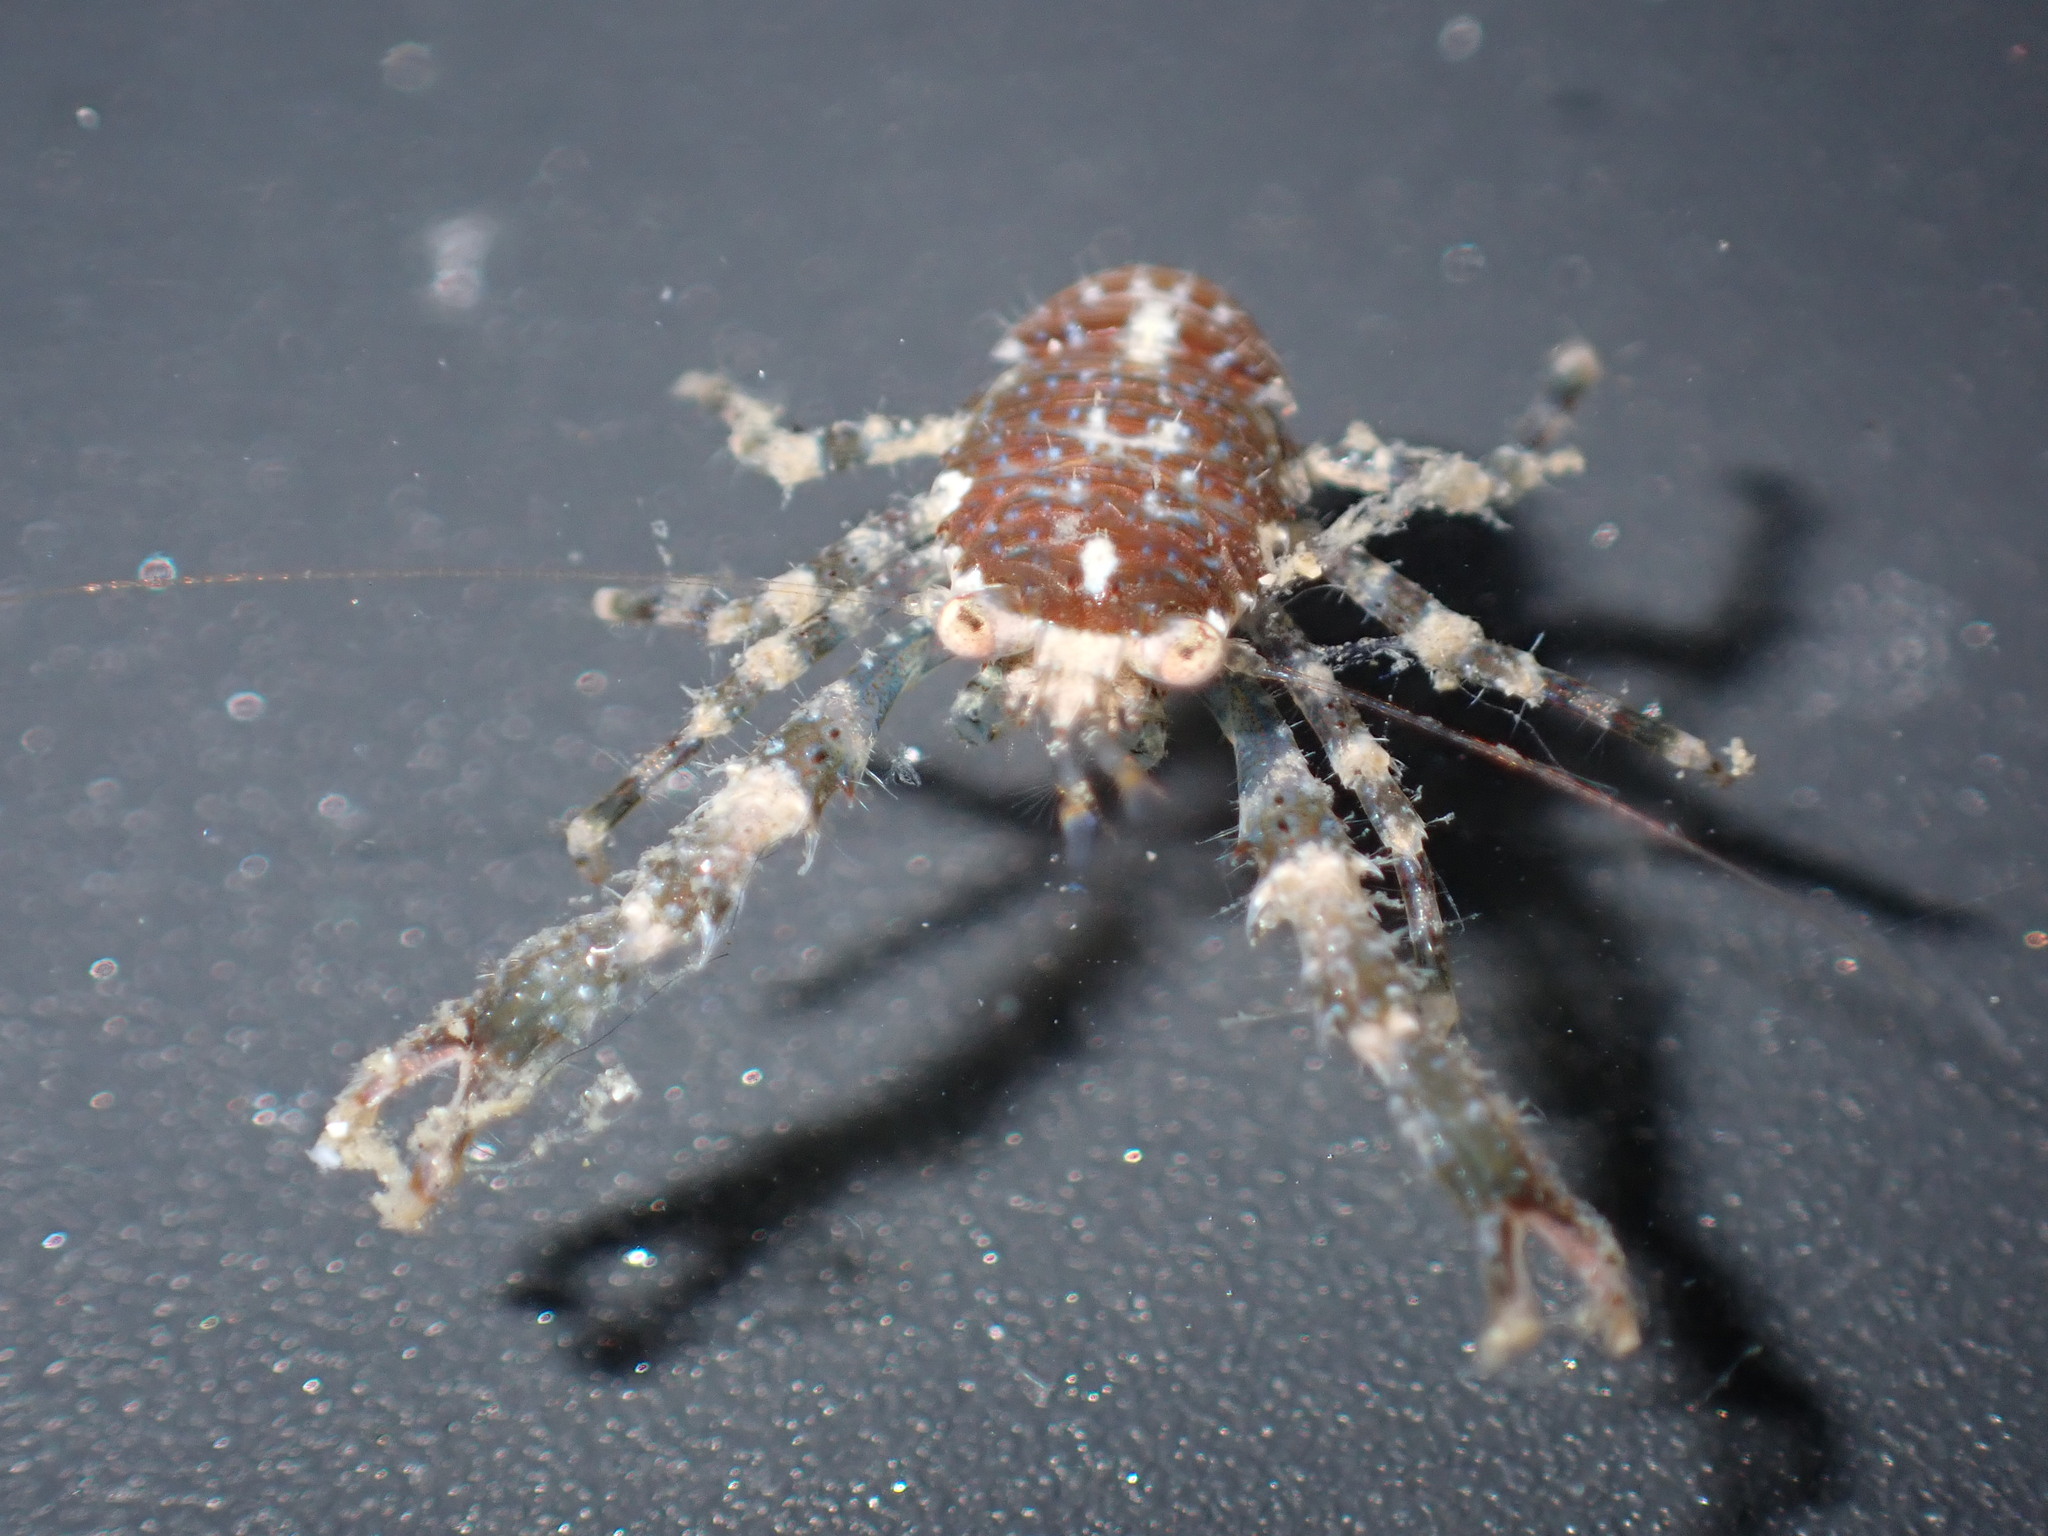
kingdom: Animalia
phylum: Arthropoda
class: Malacostraca
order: Decapoda
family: Galatheidae
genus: Galathea
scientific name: Galathea australiensis
